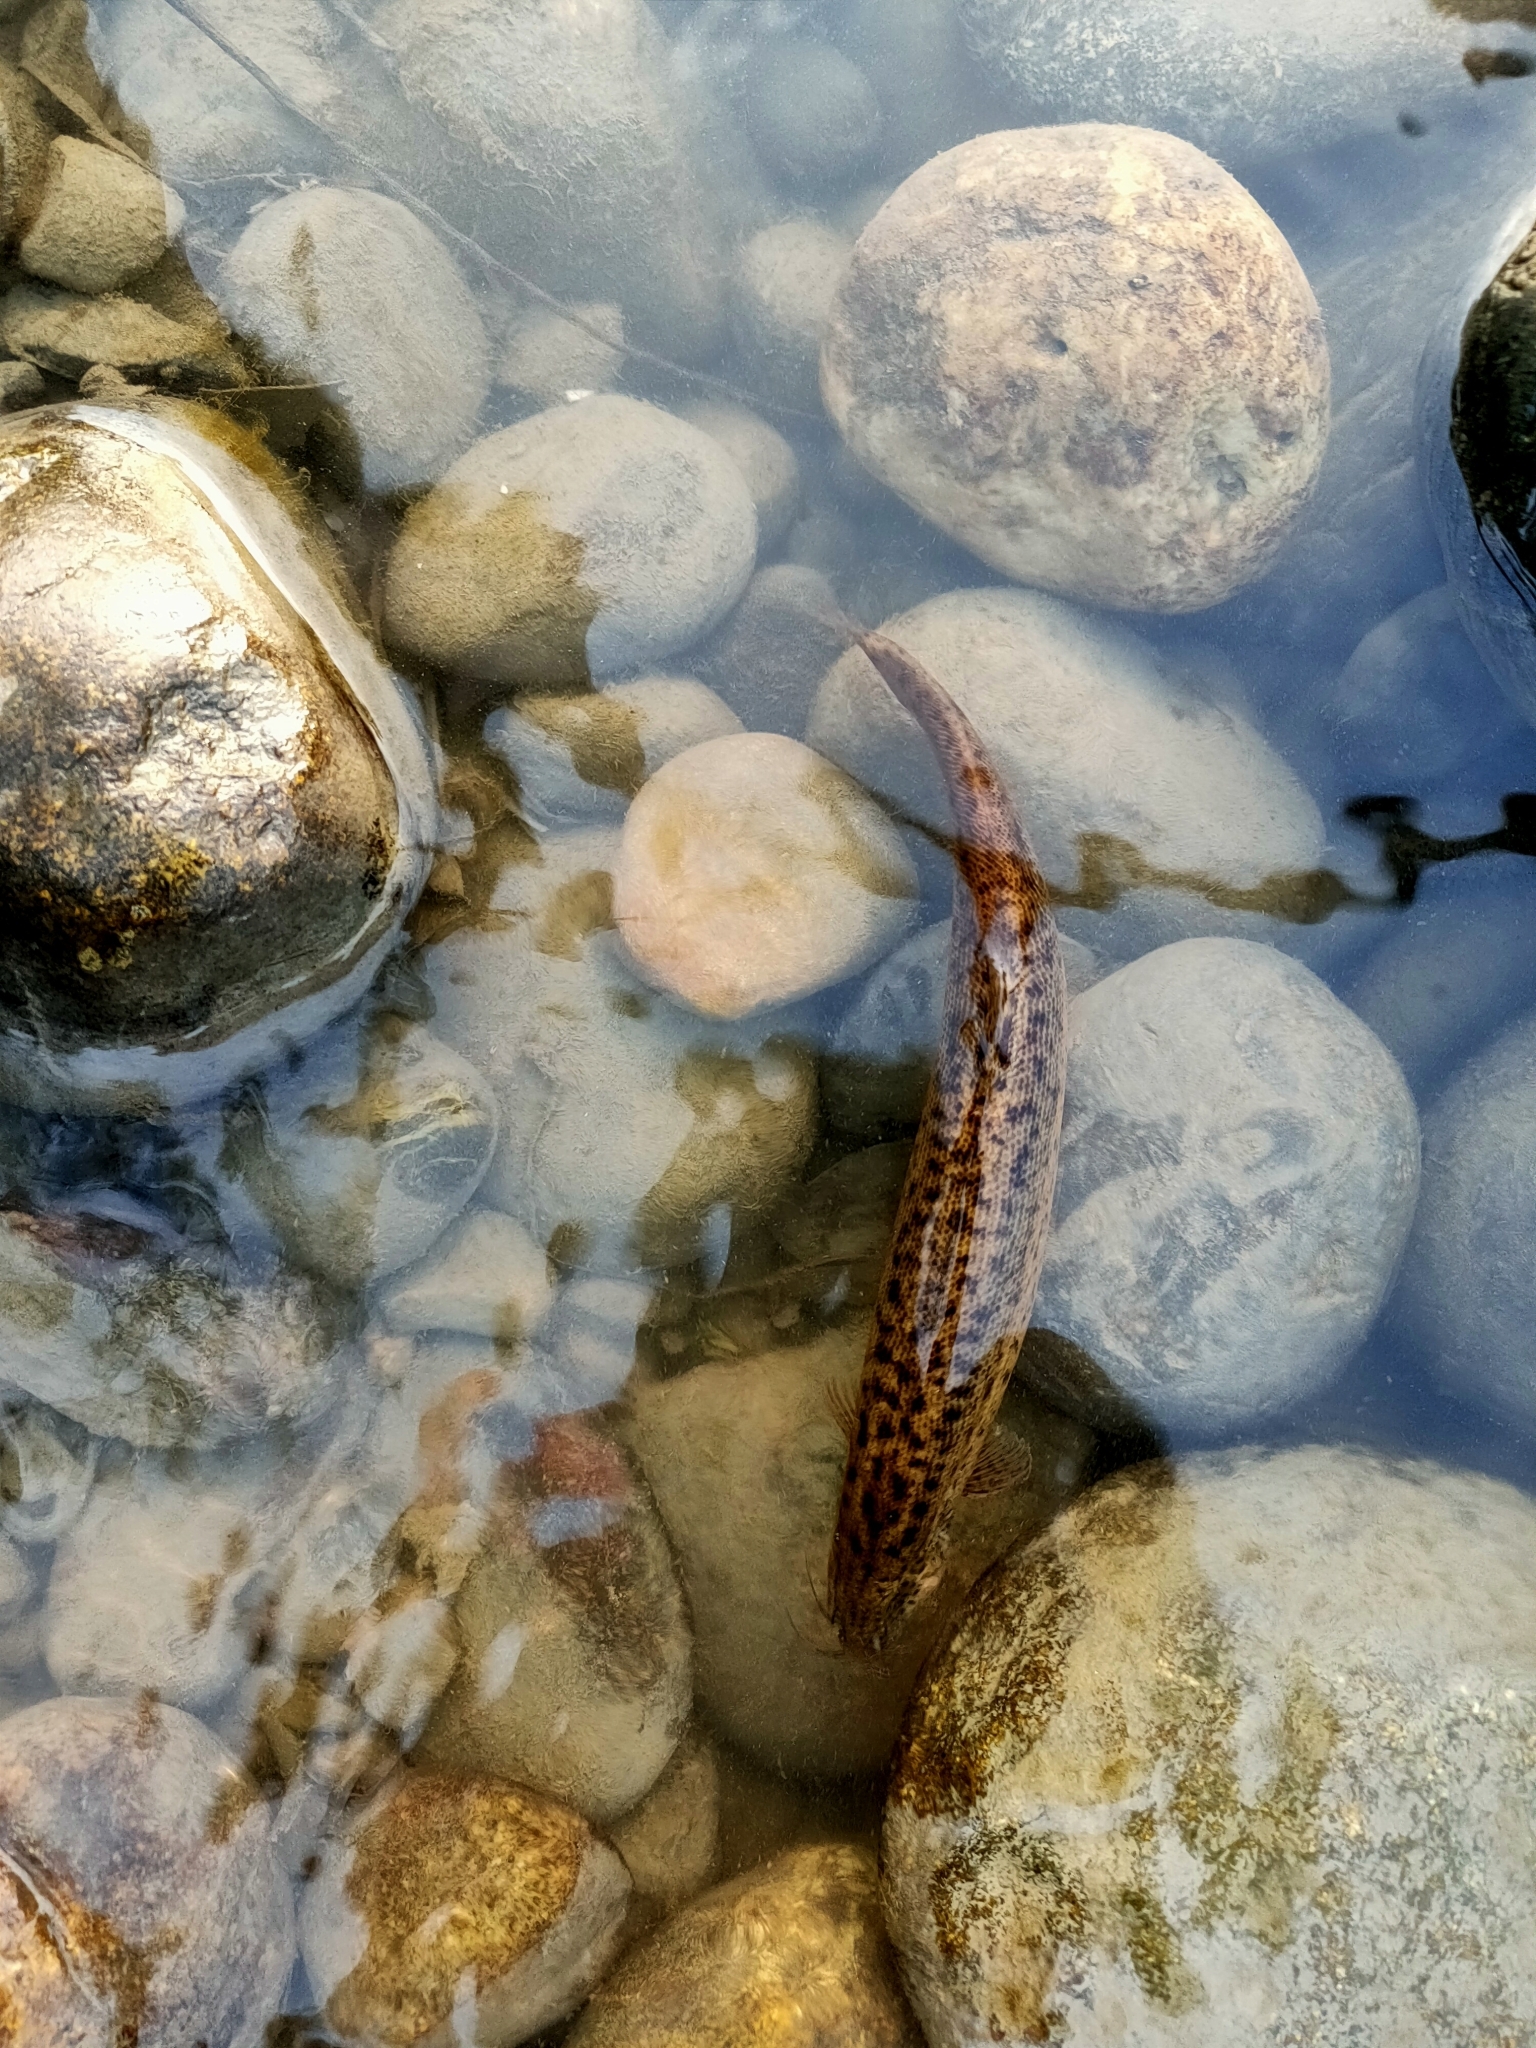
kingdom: Animalia
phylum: Chordata
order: Cypriniformes
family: Cobitidae
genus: Paramisgurnus
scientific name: Paramisgurnus dabryanus
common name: Large scale loach
